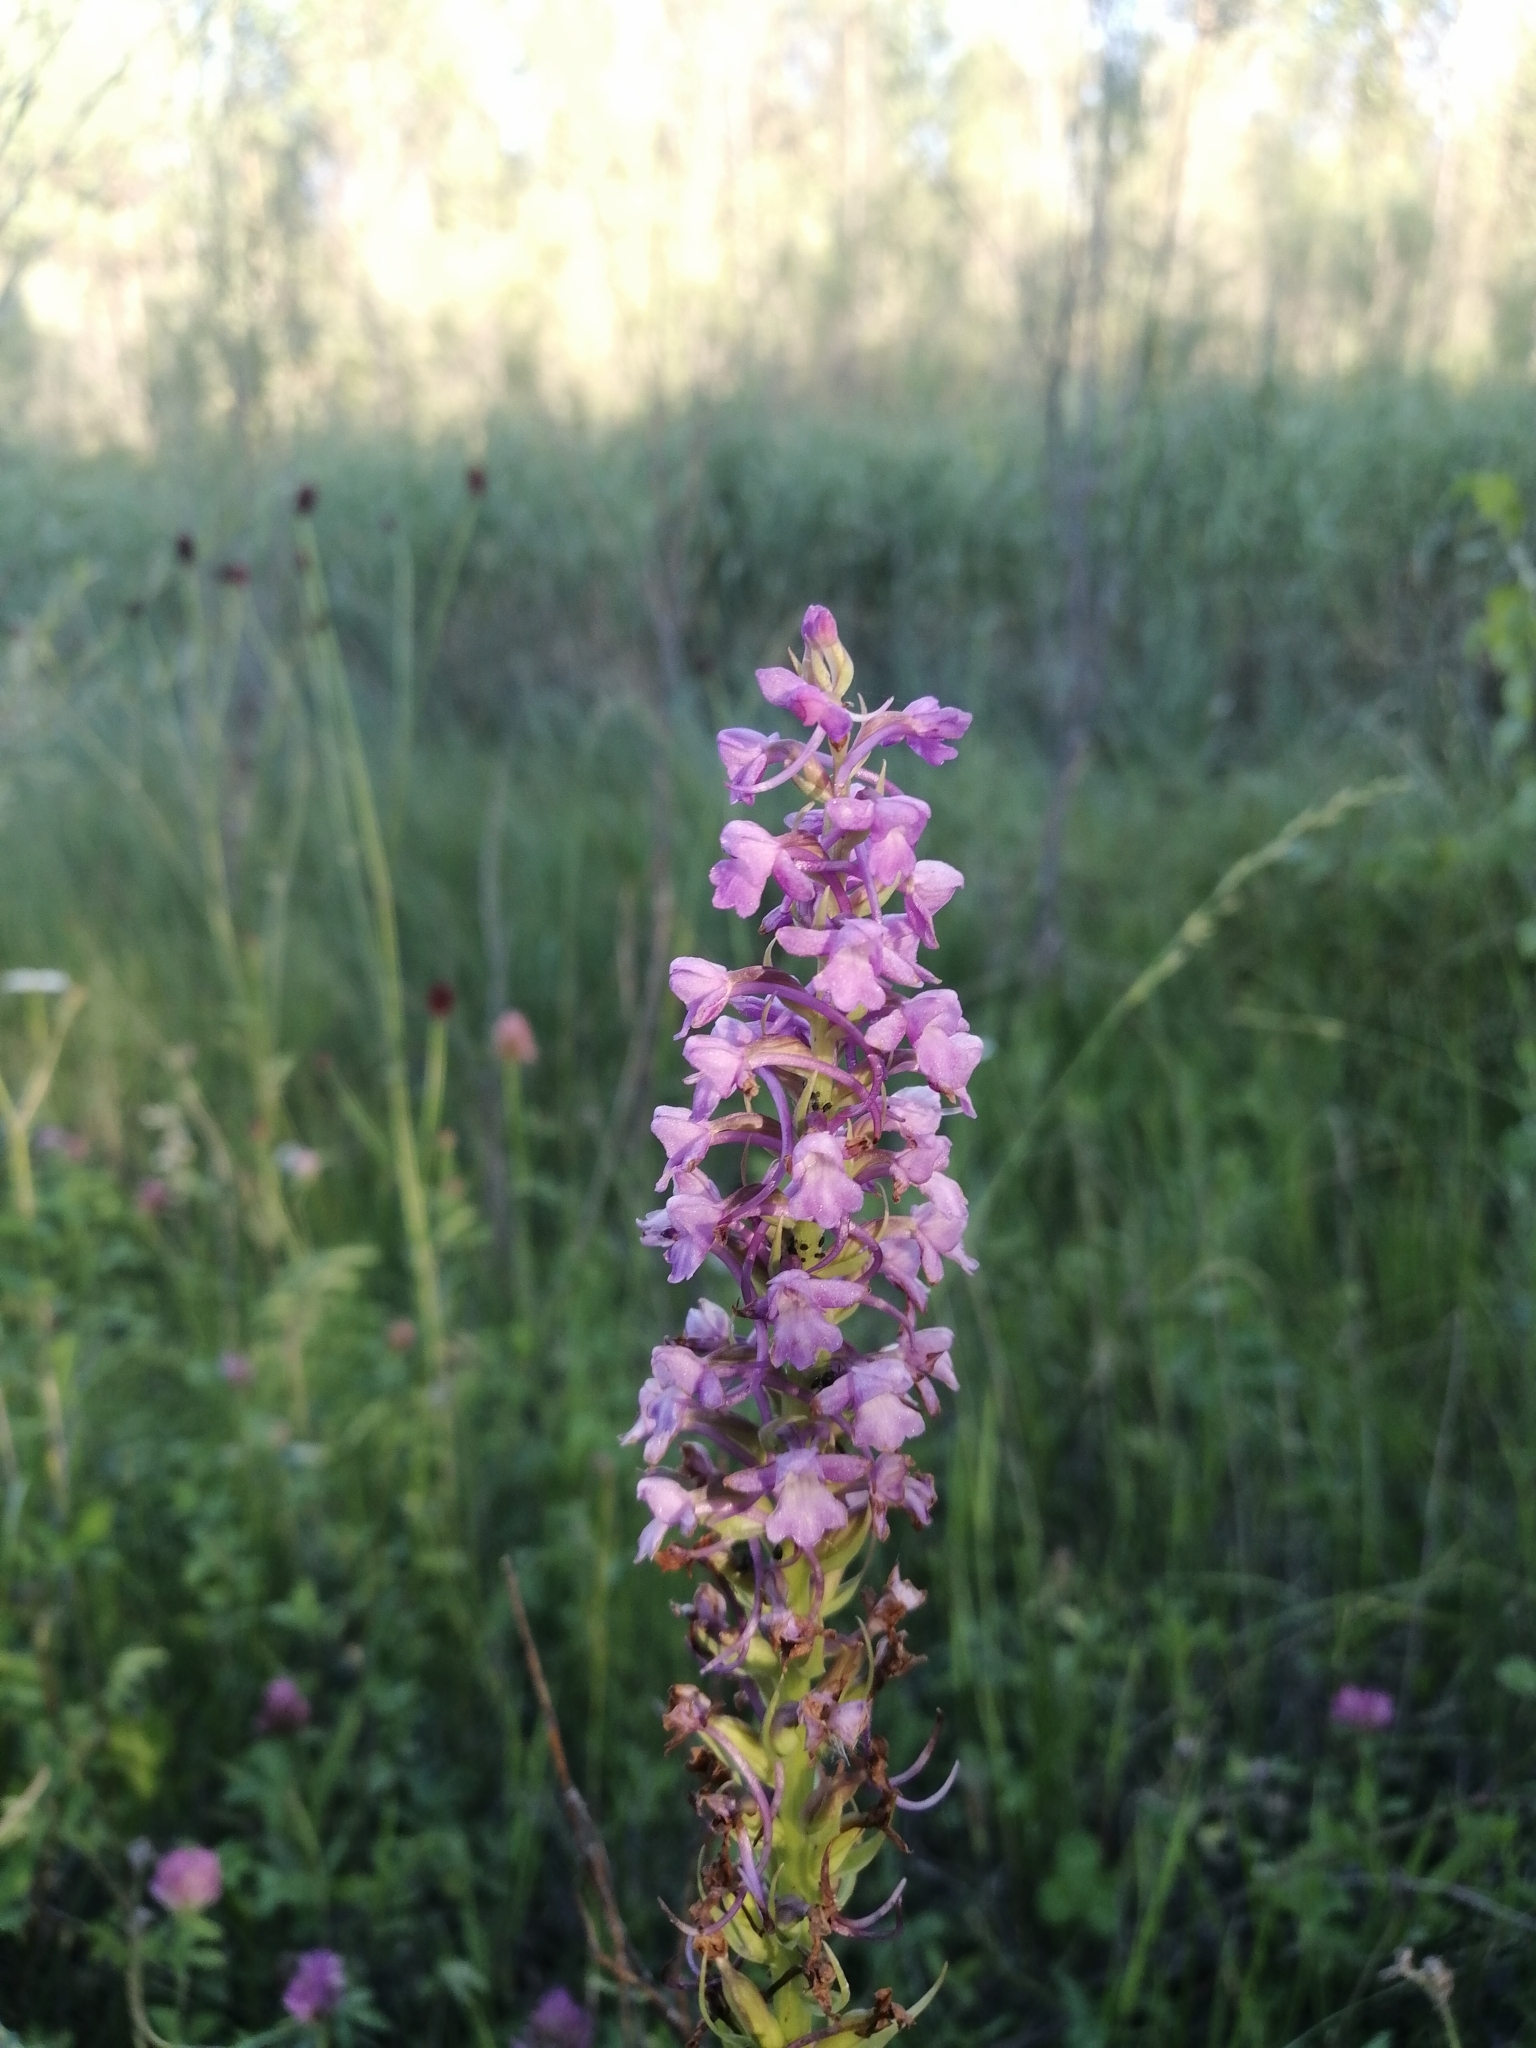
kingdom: Plantae
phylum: Tracheophyta
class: Liliopsida
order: Asparagales
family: Orchidaceae
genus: Gymnadenia
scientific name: Gymnadenia conopsea
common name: Fragrant orchid
